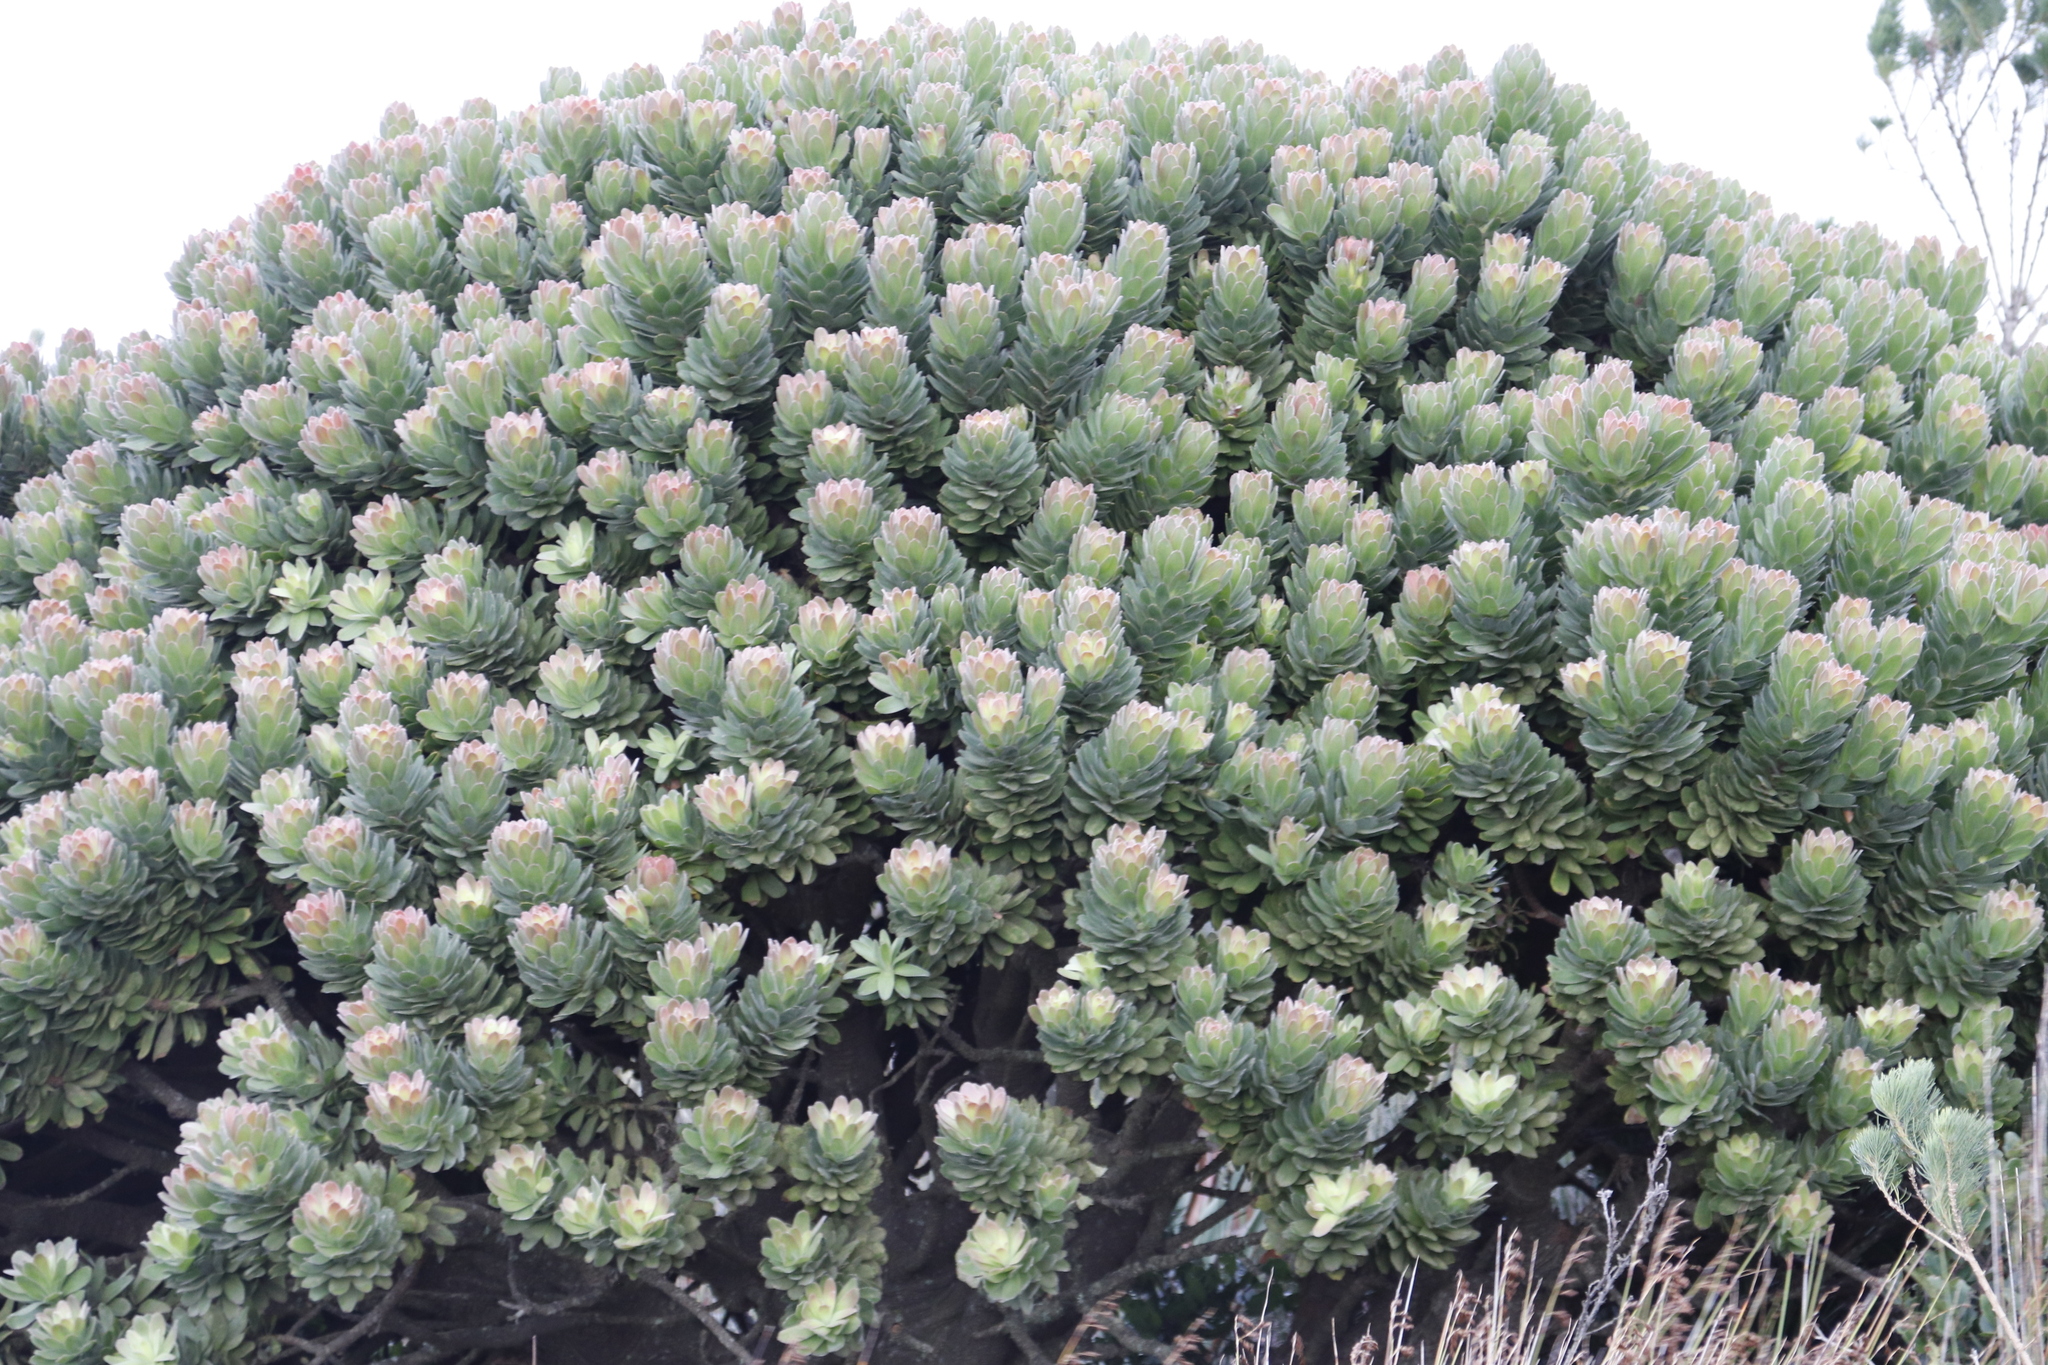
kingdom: Plantae
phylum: Tracheophyta
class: Magnoliopsida
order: Proteales
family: Proteaceae
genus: Mimetes
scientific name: Mimetes fimbriifolius
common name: Fringed bottlebrush
